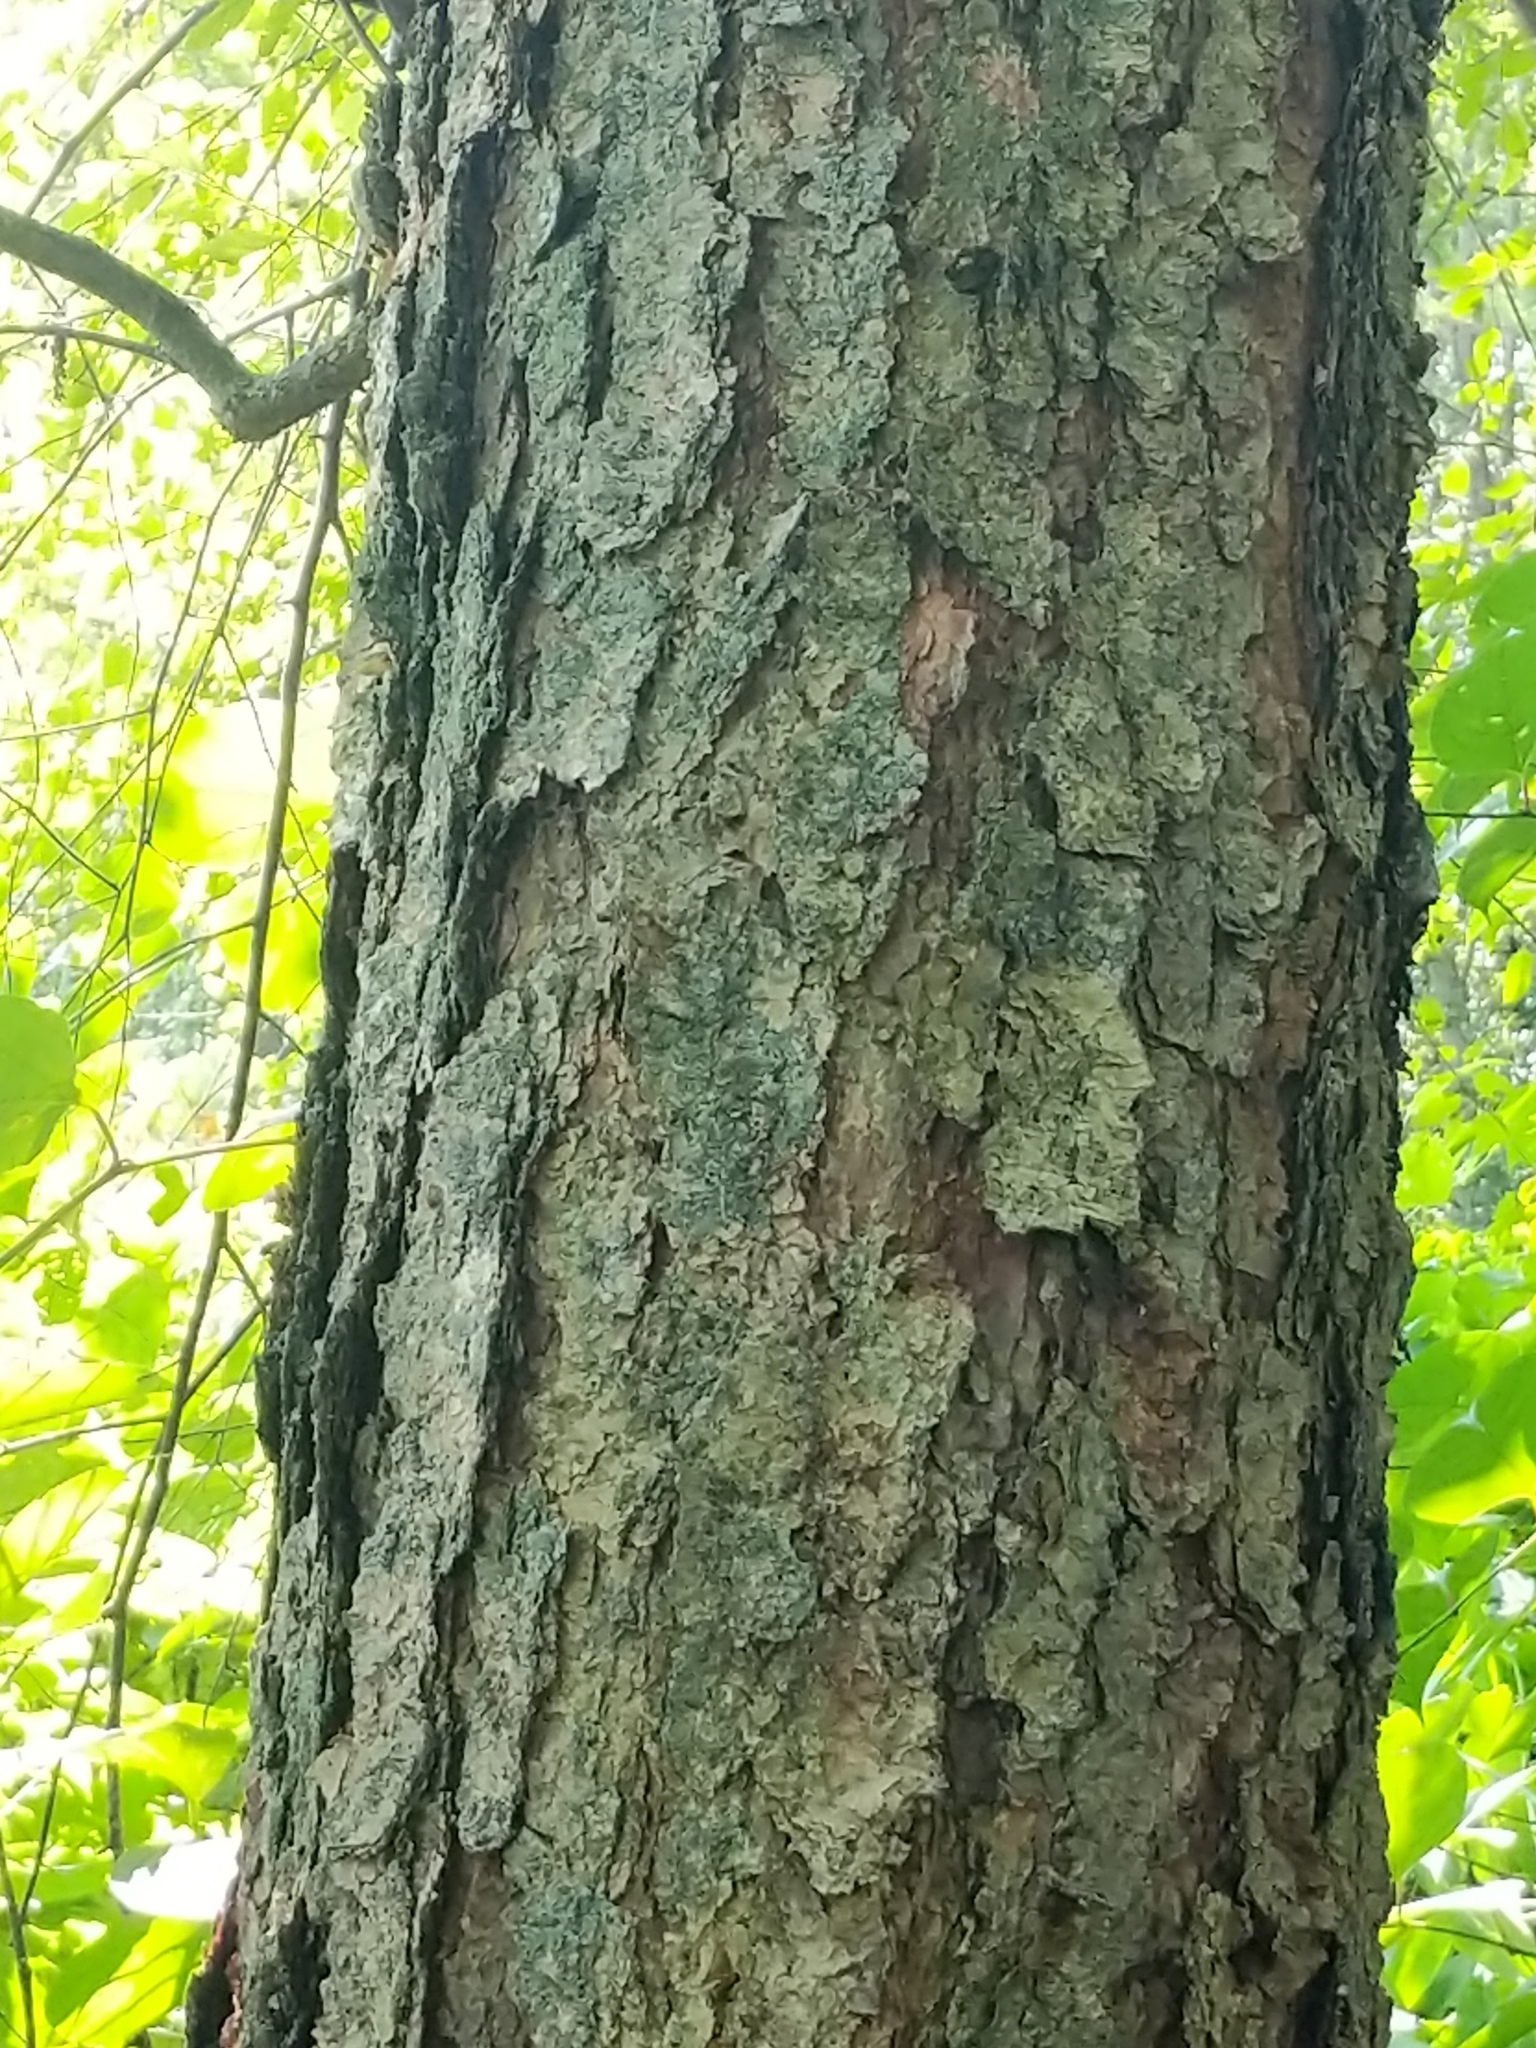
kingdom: Plantae
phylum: Tracheophyta
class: Magnoliopsida
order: Fagales
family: Betulaceae
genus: Betula
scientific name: Betula nigra
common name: Black birch
